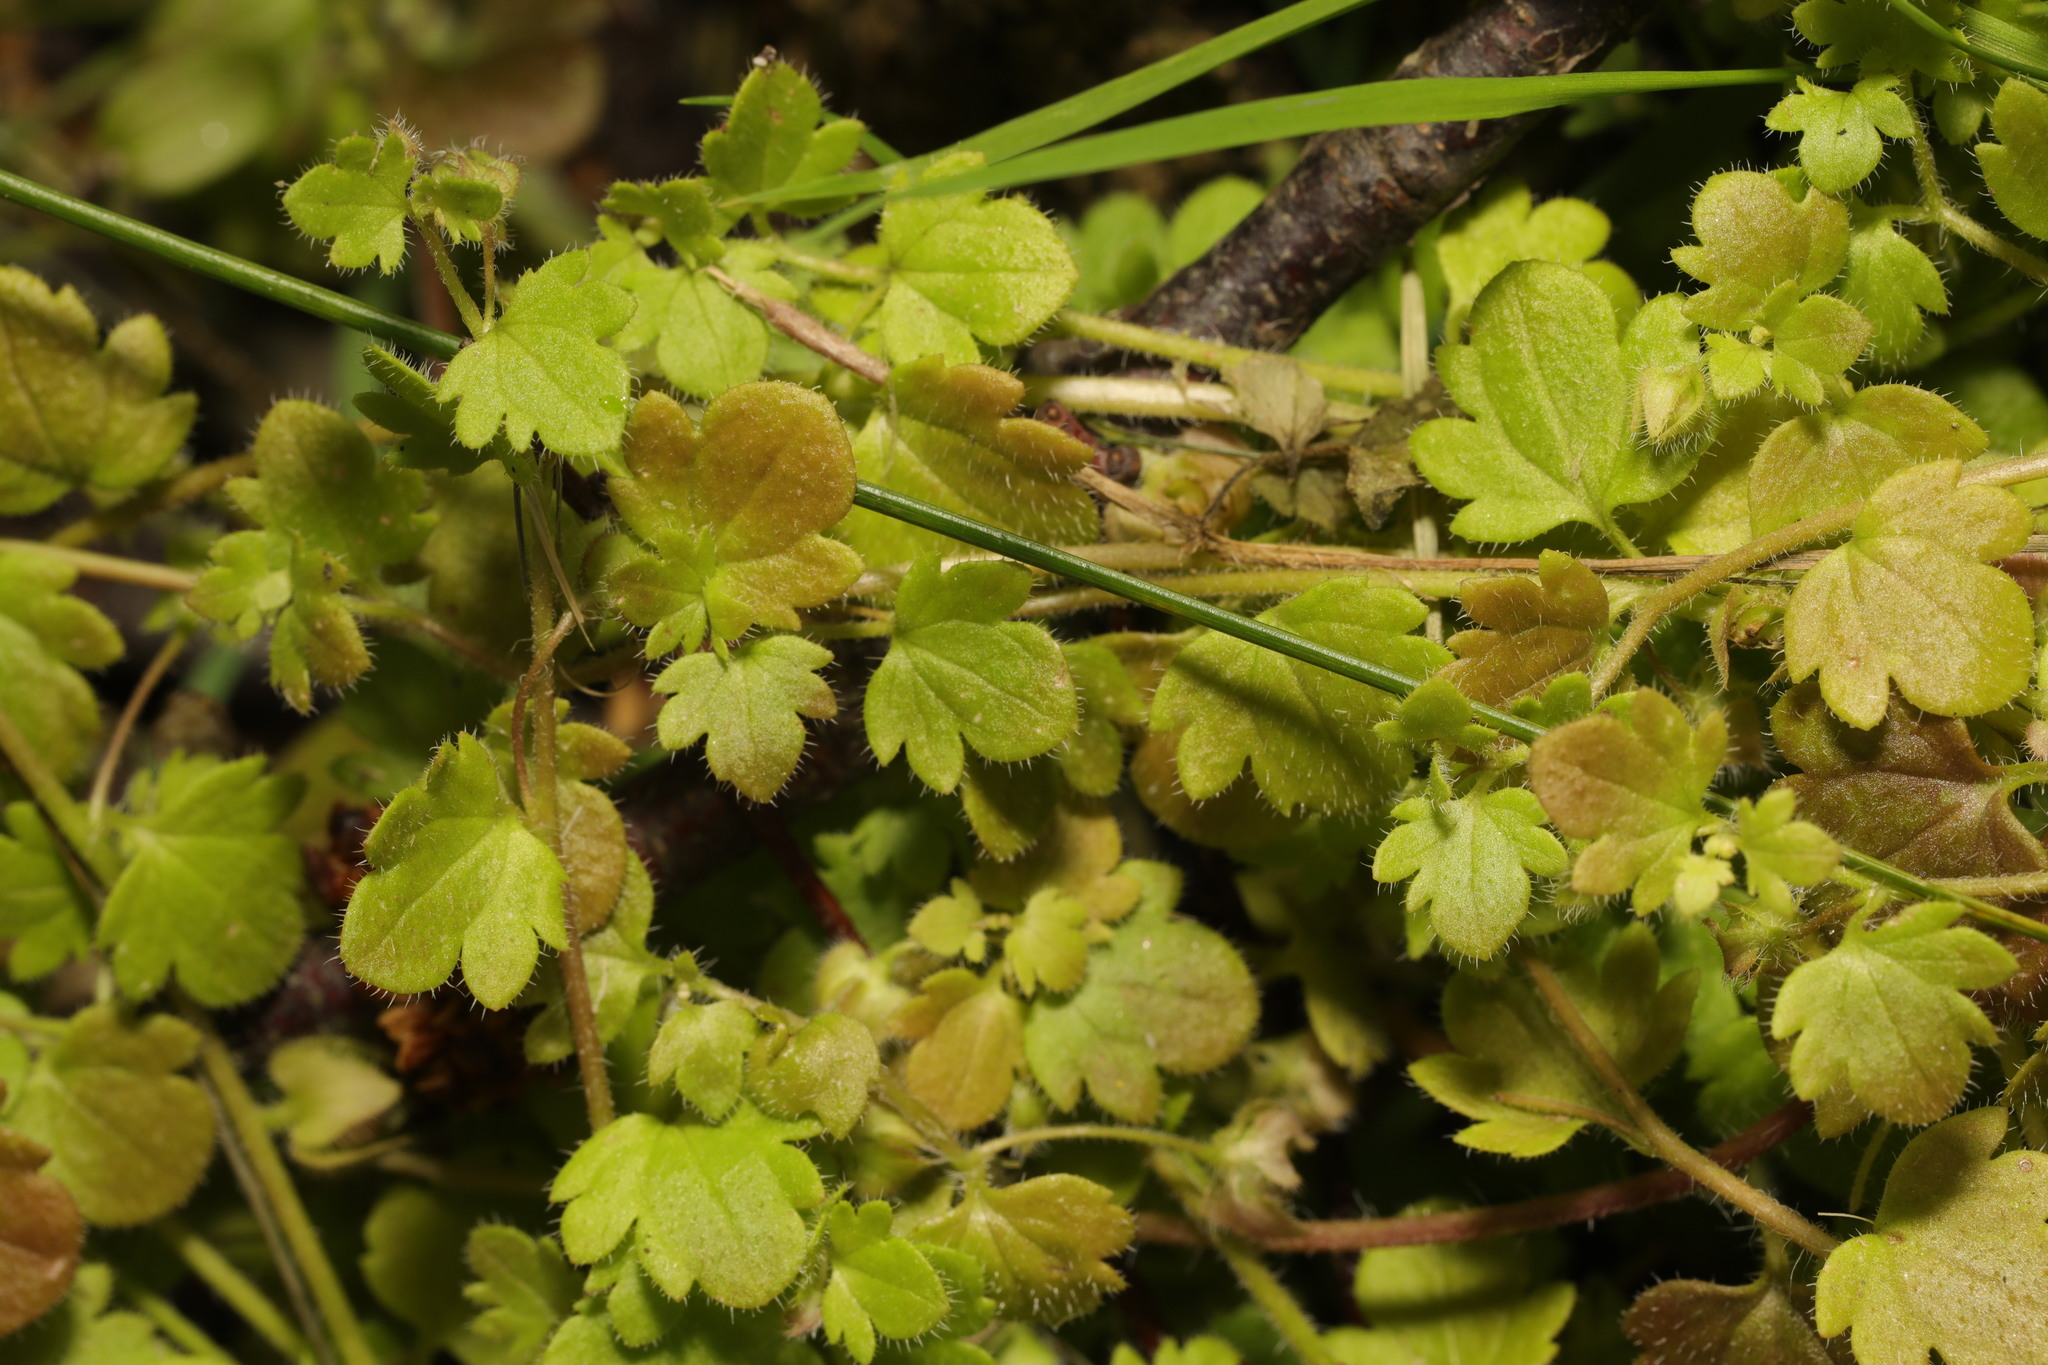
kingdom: Plantae
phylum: Tracheophyta
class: Magnoliopsida
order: Lamiales
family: Plantaginaceae
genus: Veronica
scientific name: Veronica sublobata
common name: False ivy-leaved speedwell
